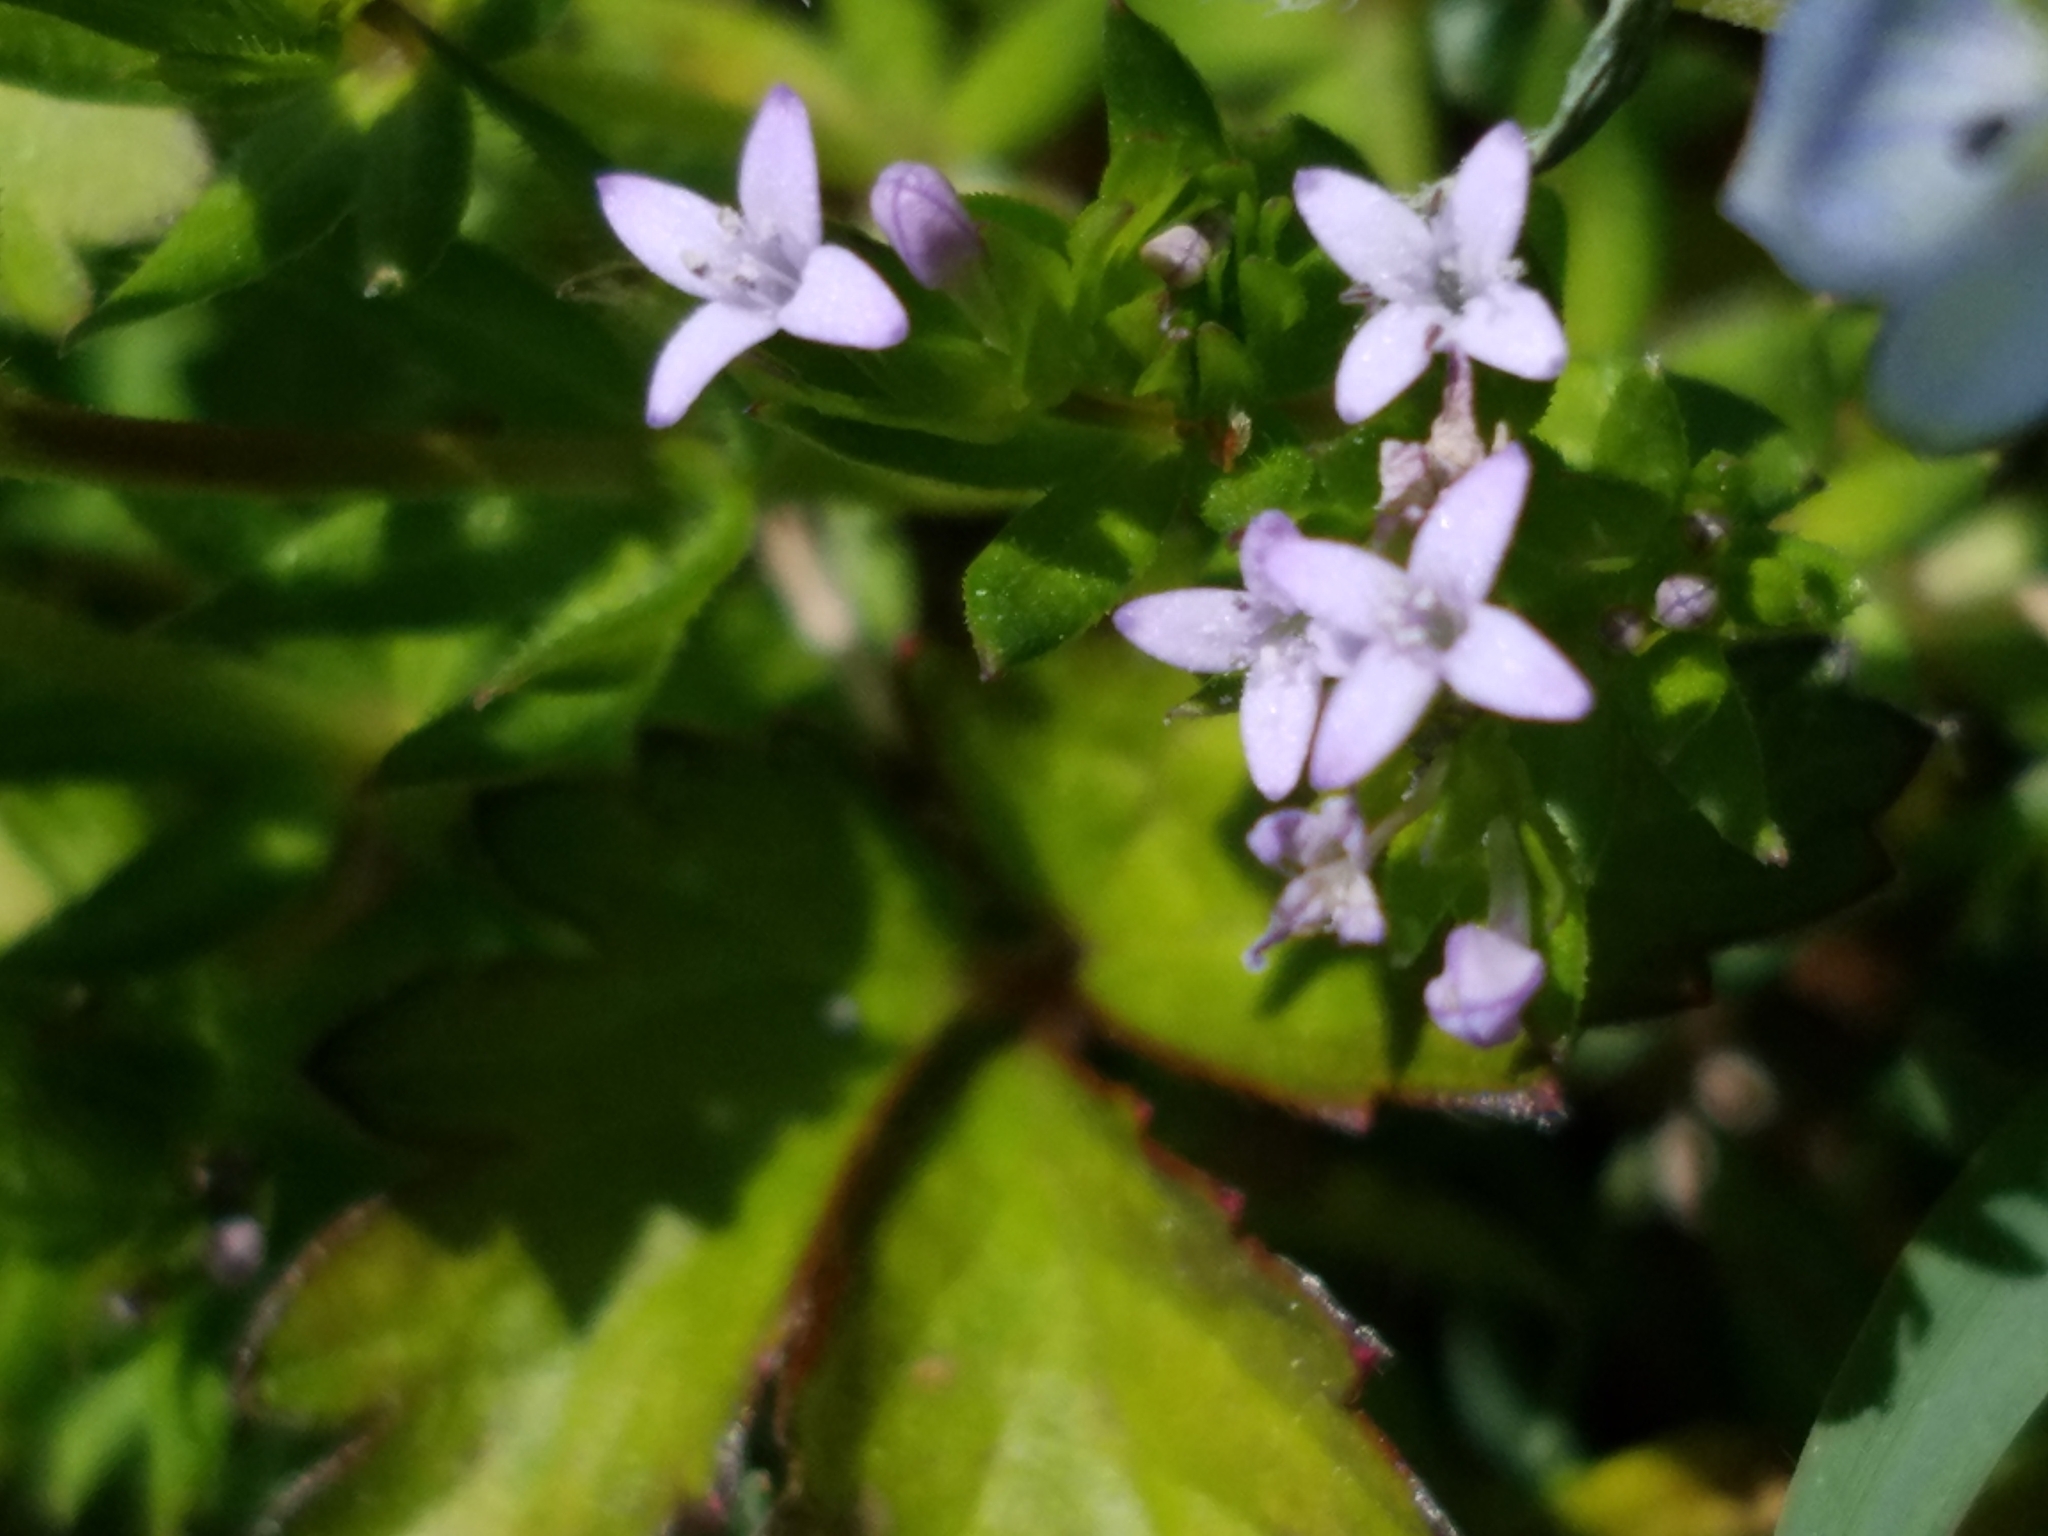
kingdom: Plantae
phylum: Tracheophyta
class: Magnoliopsida
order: Gentianales
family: Rubiaceae
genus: Sherardia
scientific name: Sherardia arvensis
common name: Field madder
